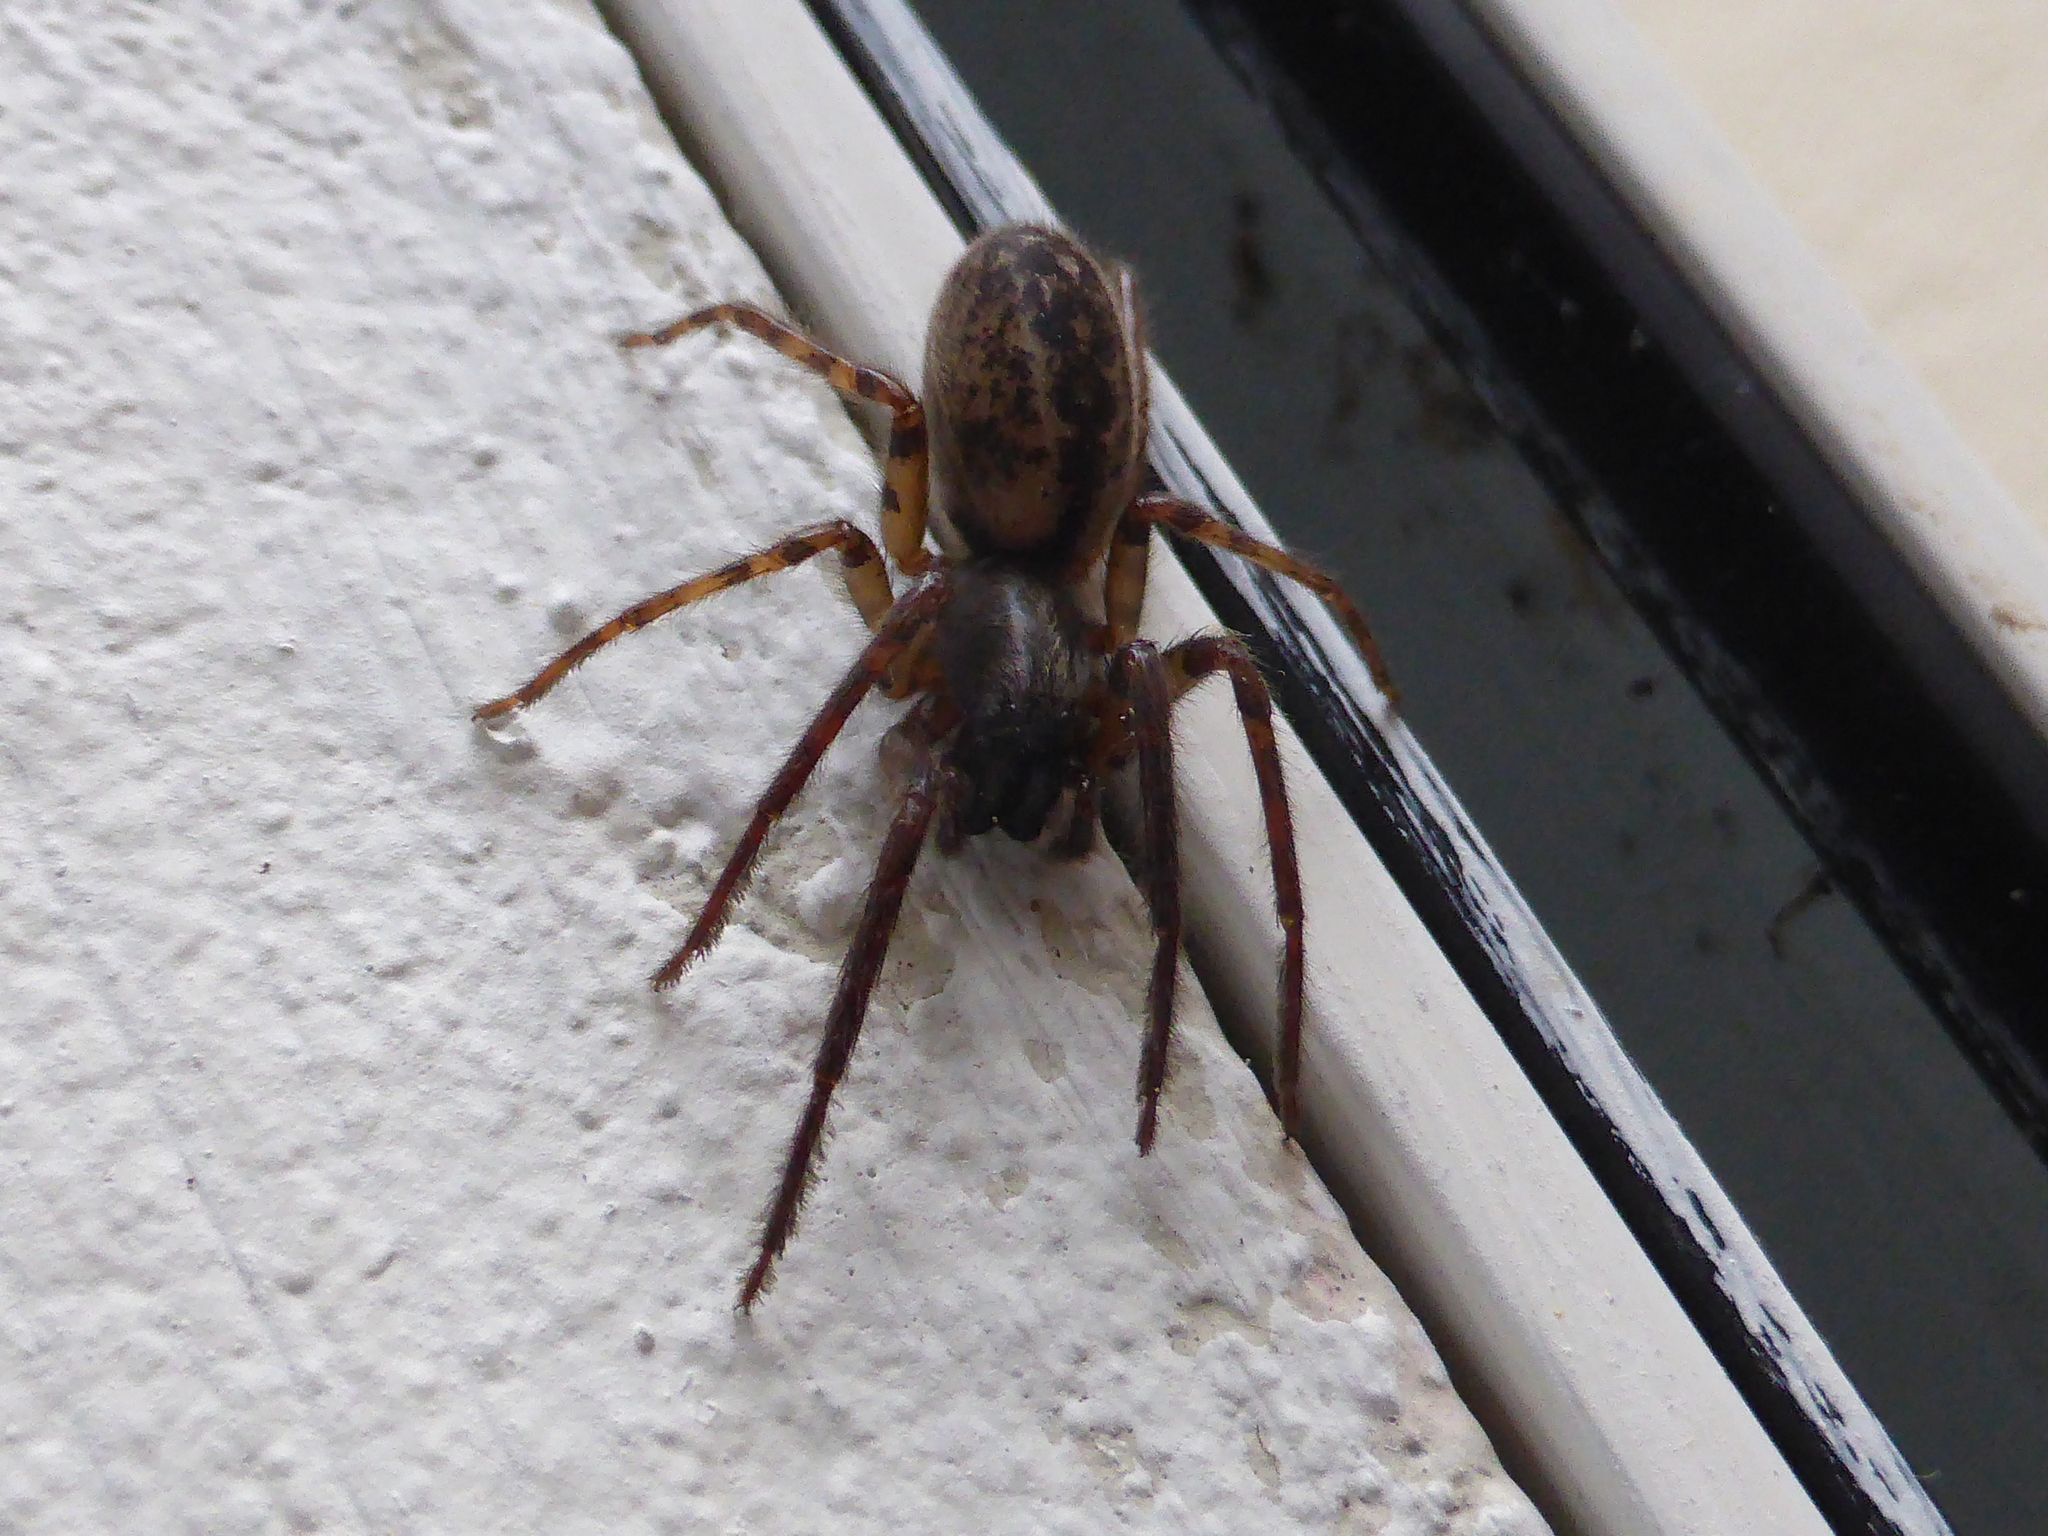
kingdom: Animalia
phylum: Arthropoda
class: Arachnida
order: Araneae
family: Segestriidae
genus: Segestria
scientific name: Segestria bavarica
